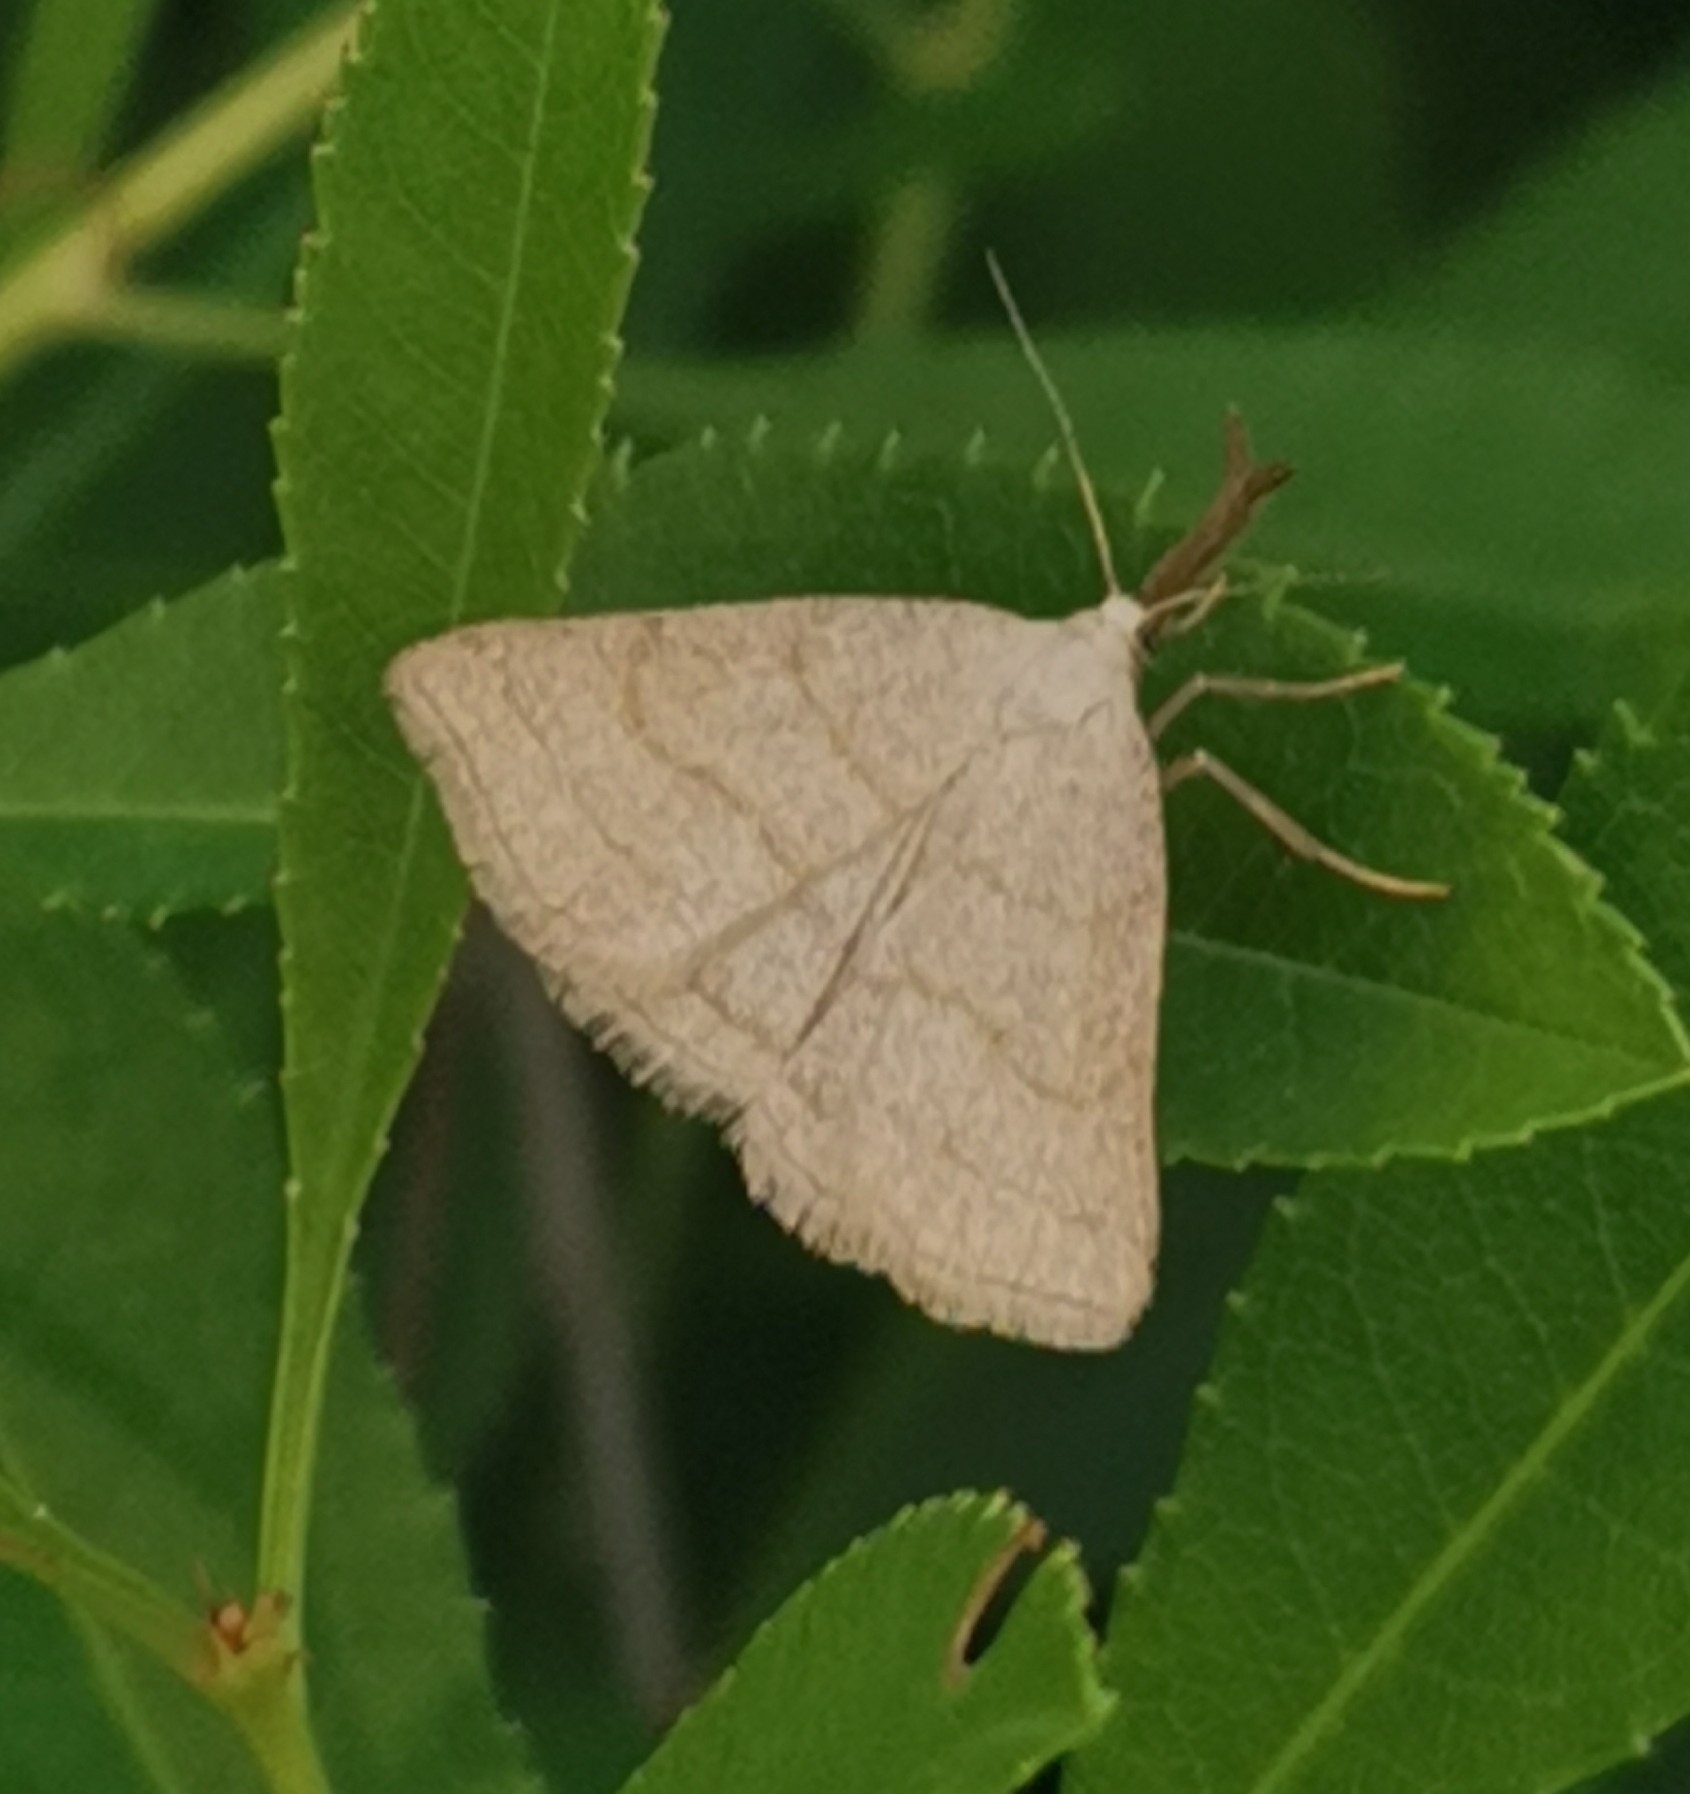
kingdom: Animalia
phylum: Arthropoda
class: Insecta
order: Lepidoptera
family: Erebidae
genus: Polypogon
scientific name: Polypogon tentacularia
